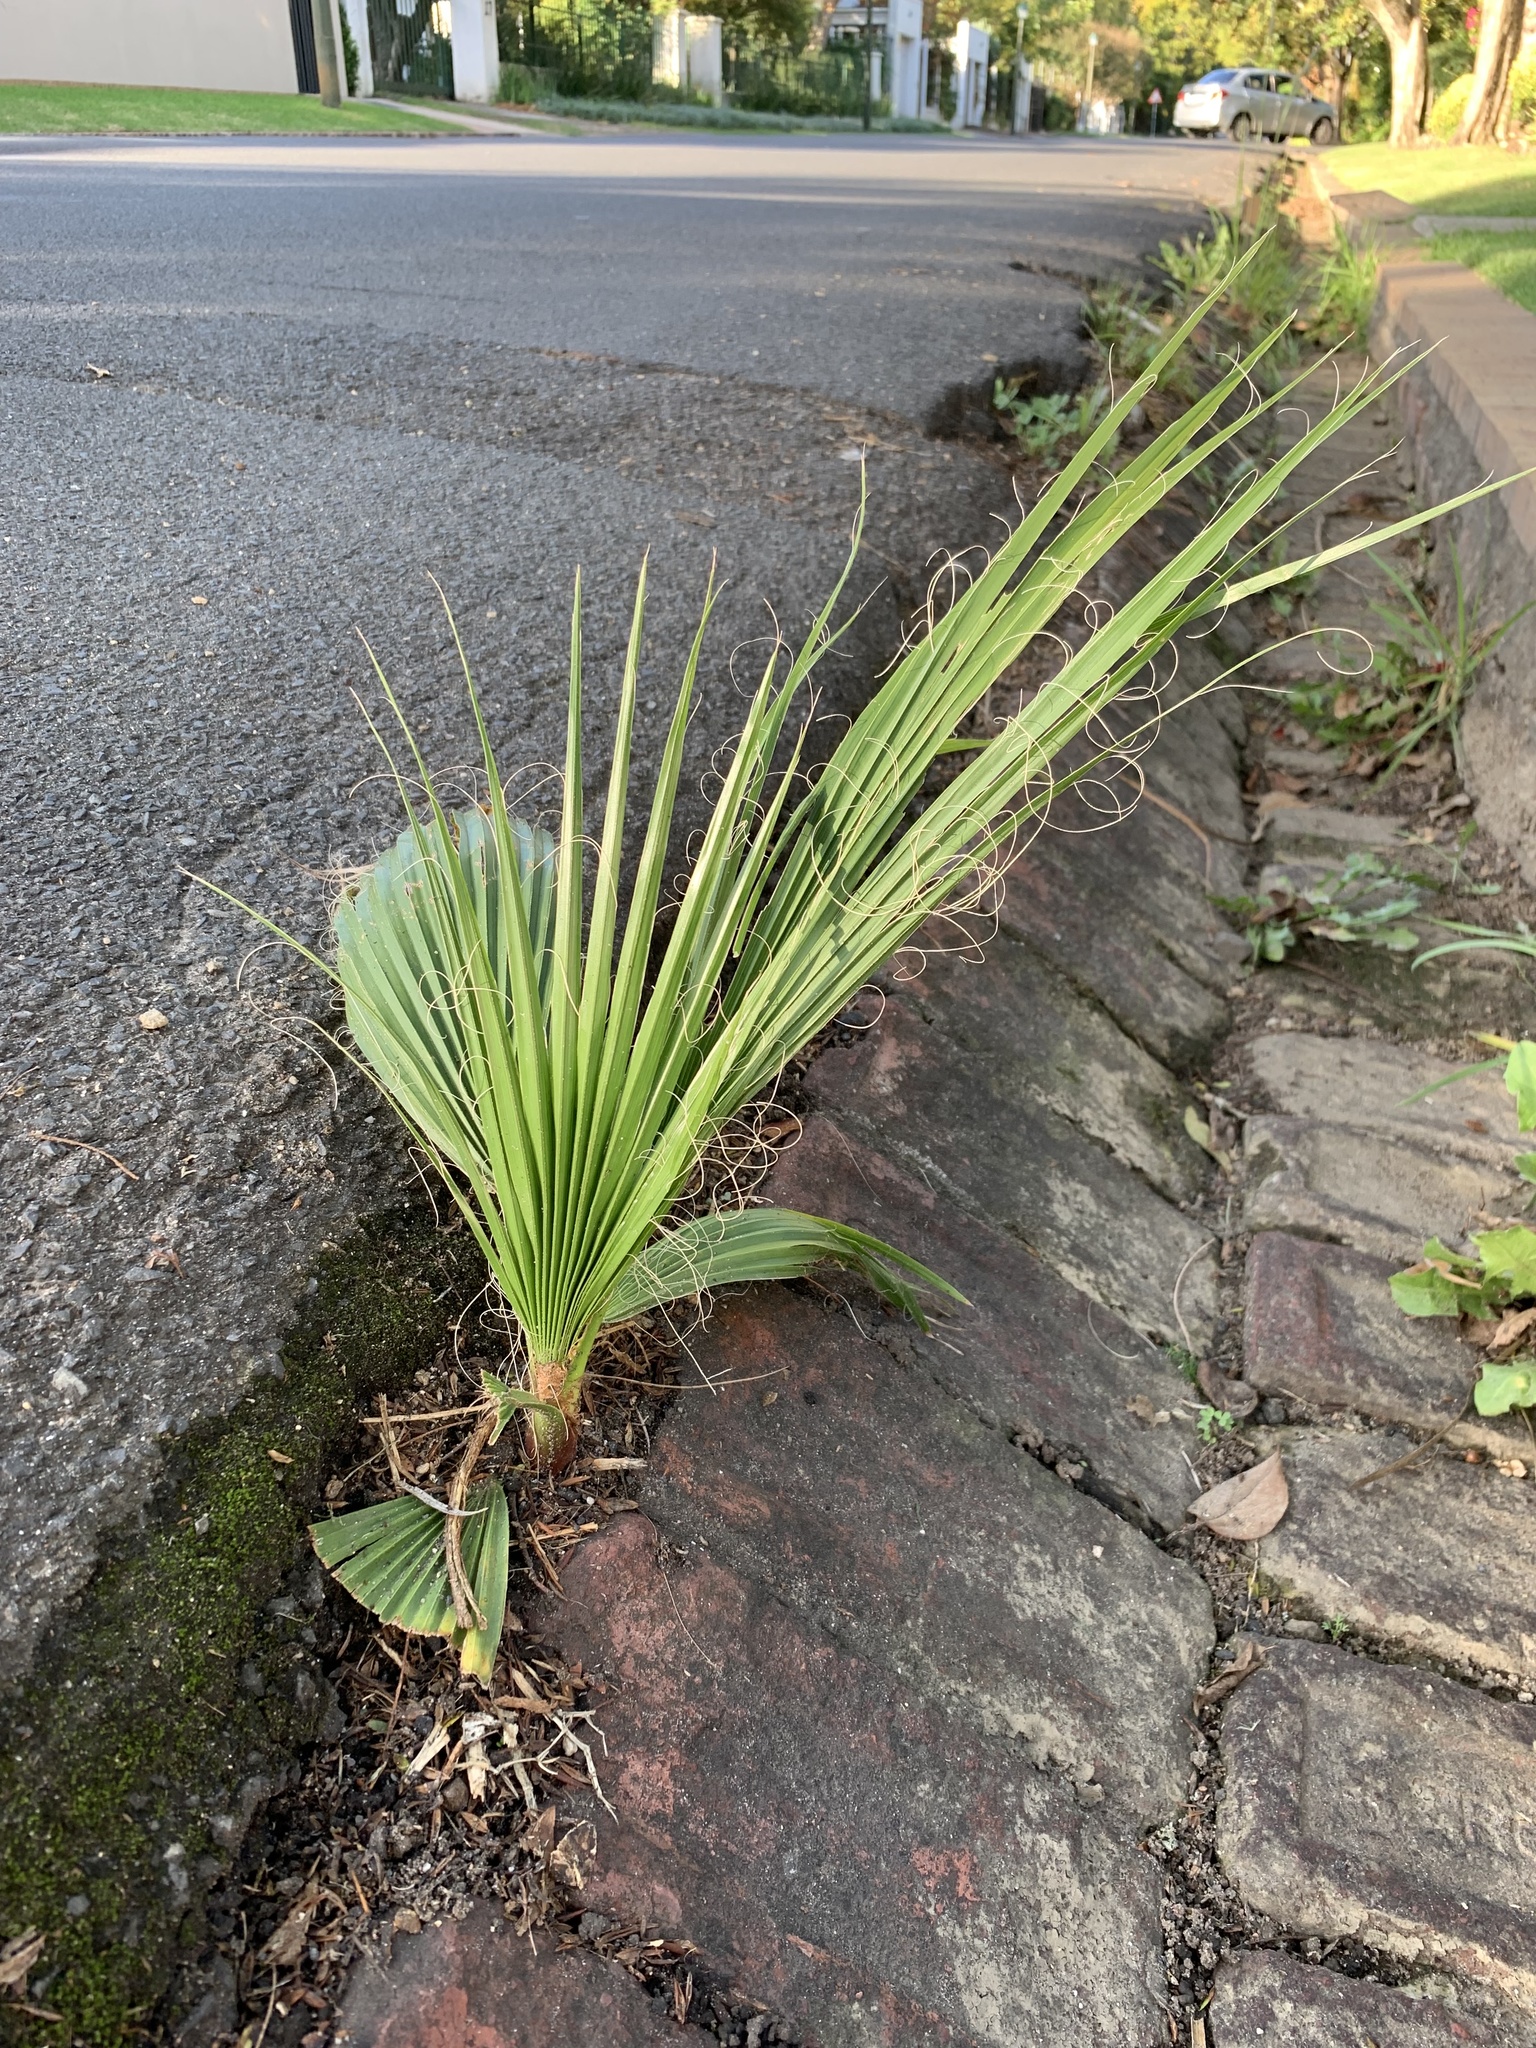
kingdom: Plantae
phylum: Tracheophyta
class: Liliopsida
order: Arecales
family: Arecaceae
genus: Washingtonia
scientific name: Washingtonia robusta
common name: Mexican fan palm
